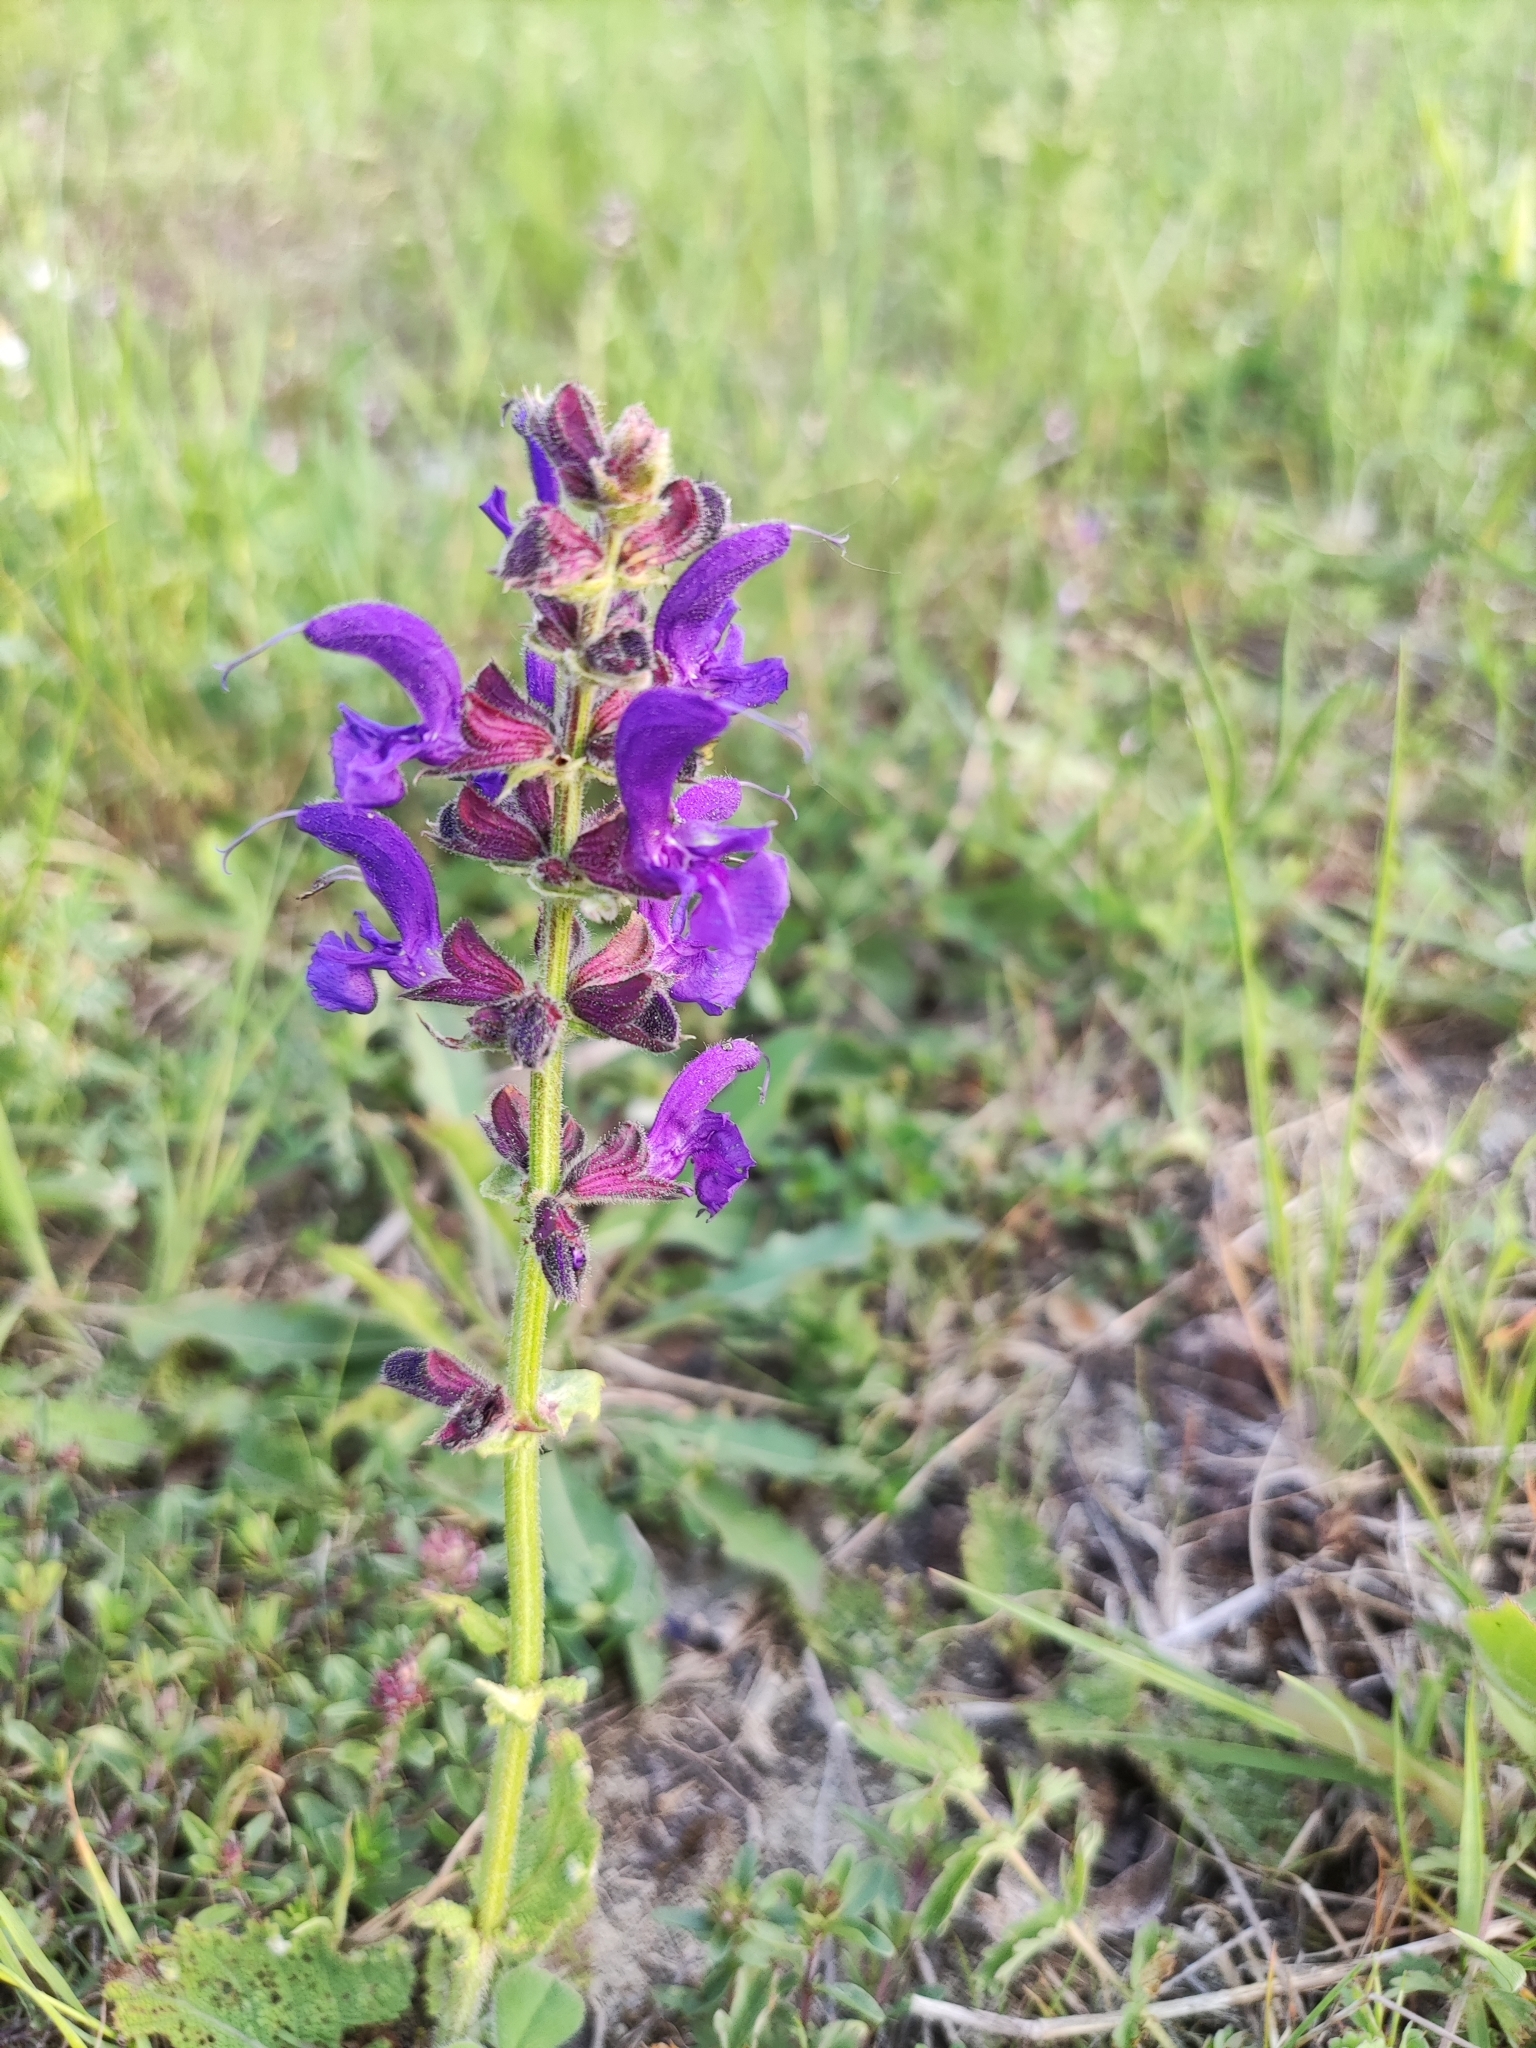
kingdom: Plantae
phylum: Tracheophyta
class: Magnoliopsida
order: Lamiales
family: Lamiaceae
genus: Salvia
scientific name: Salvia pratensis
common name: Meadow sage
